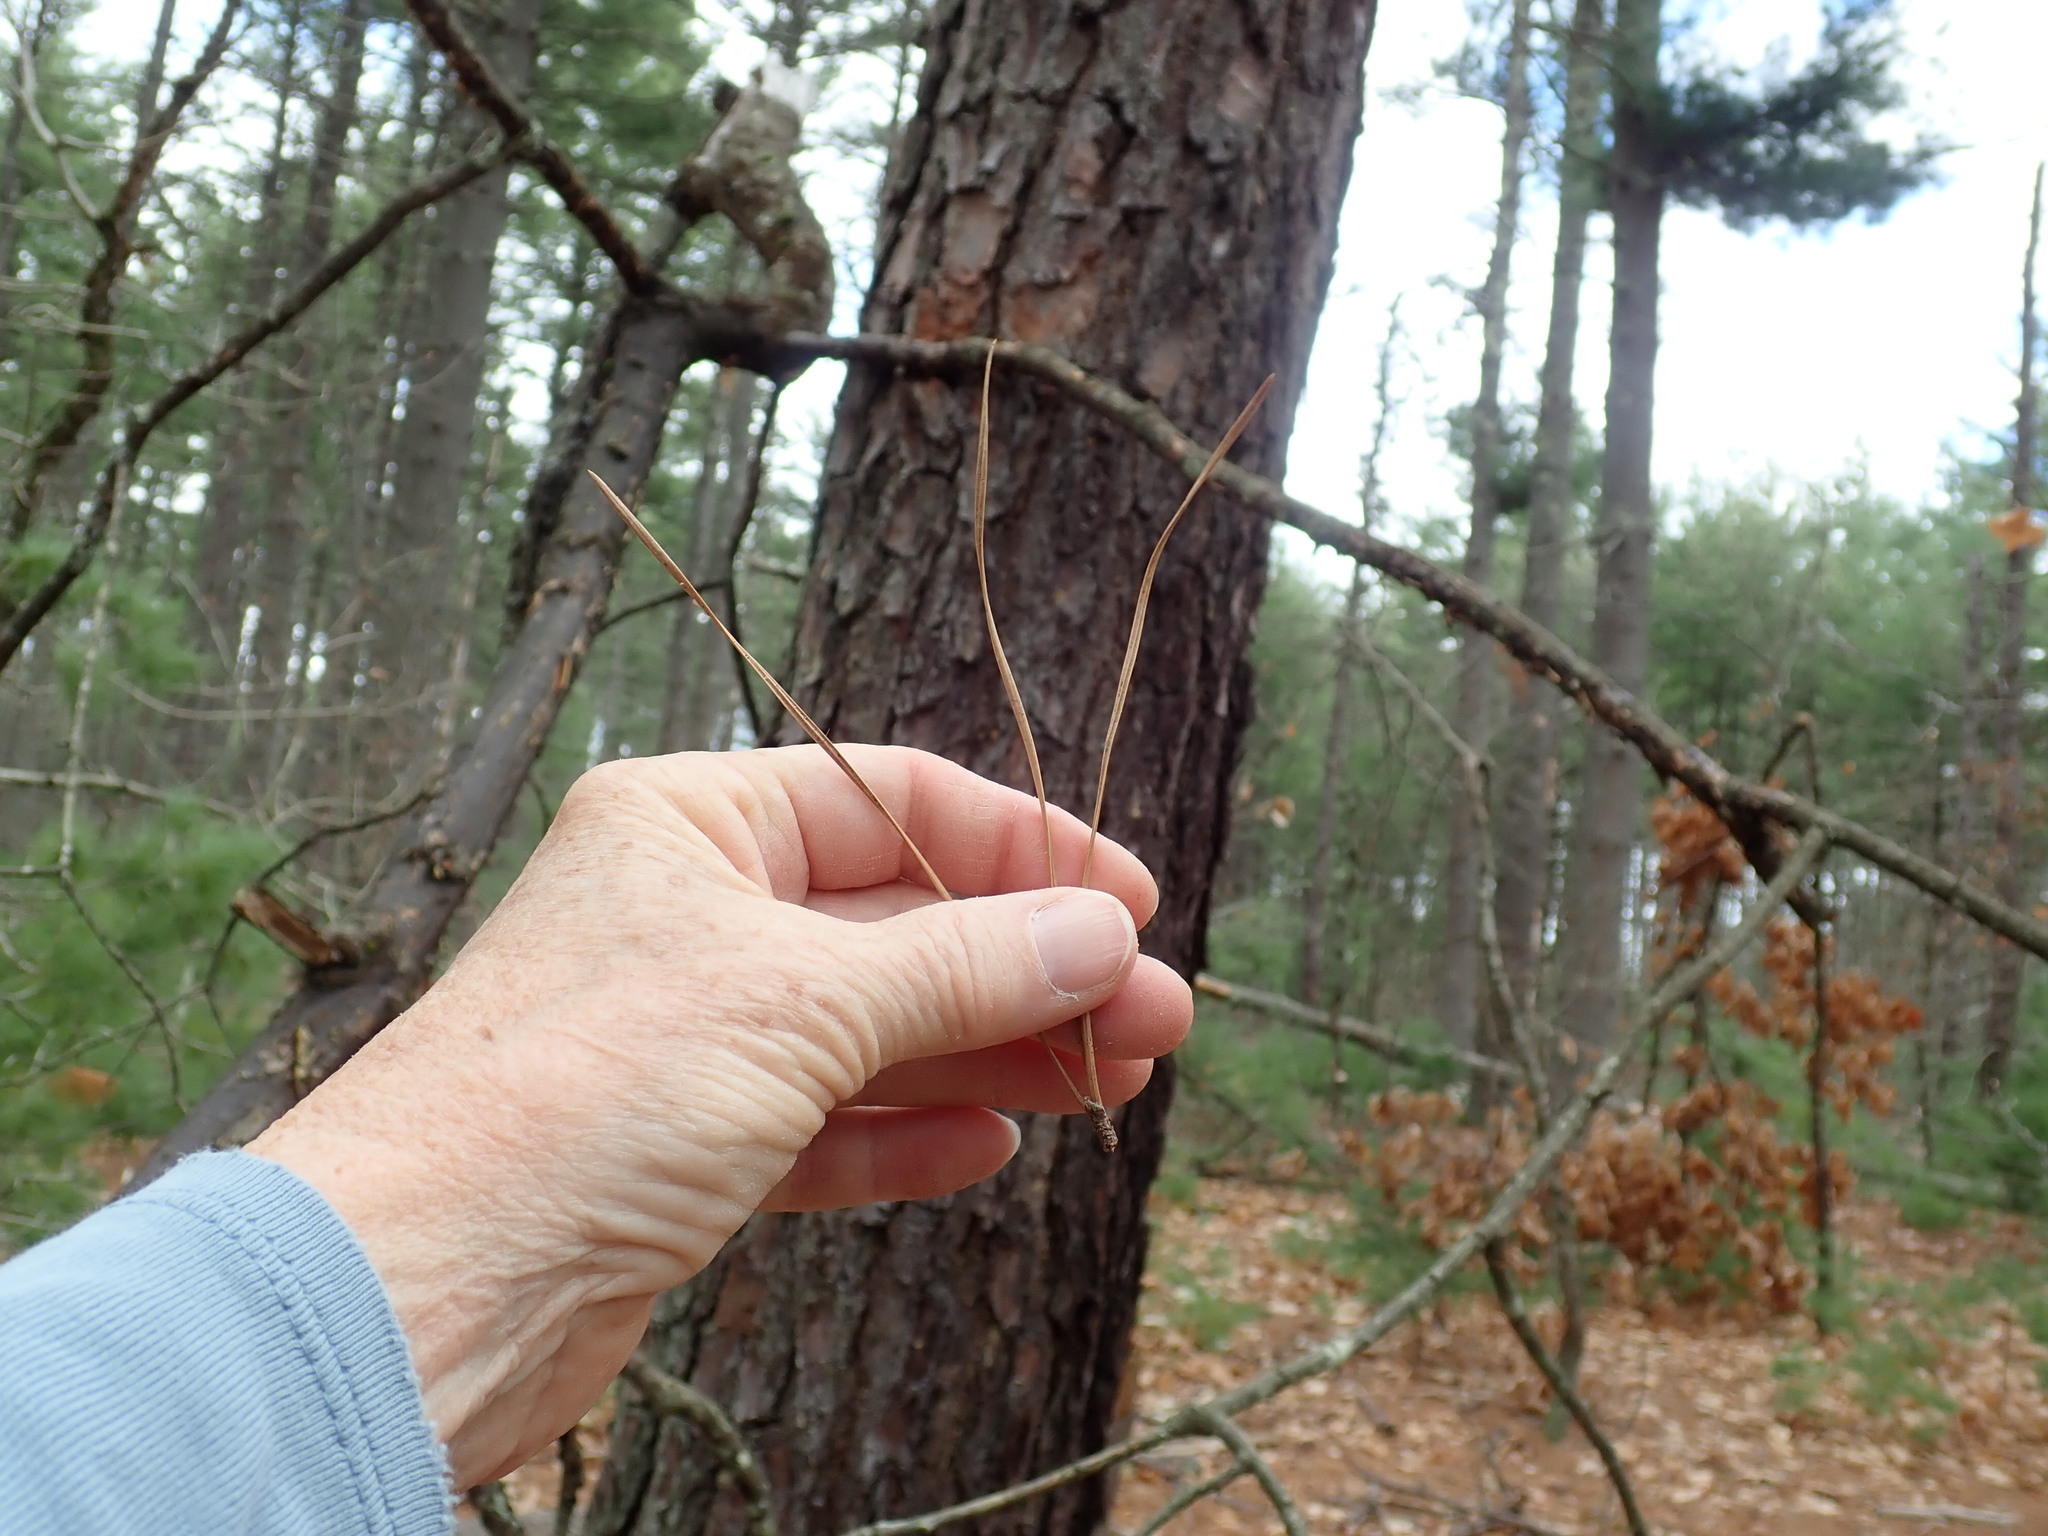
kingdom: Plantae
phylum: Tracheophyta
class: Pinopsida
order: Pinales
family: Pinaceae
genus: Pinus
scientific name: Pinus rigida
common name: Pitch pine
